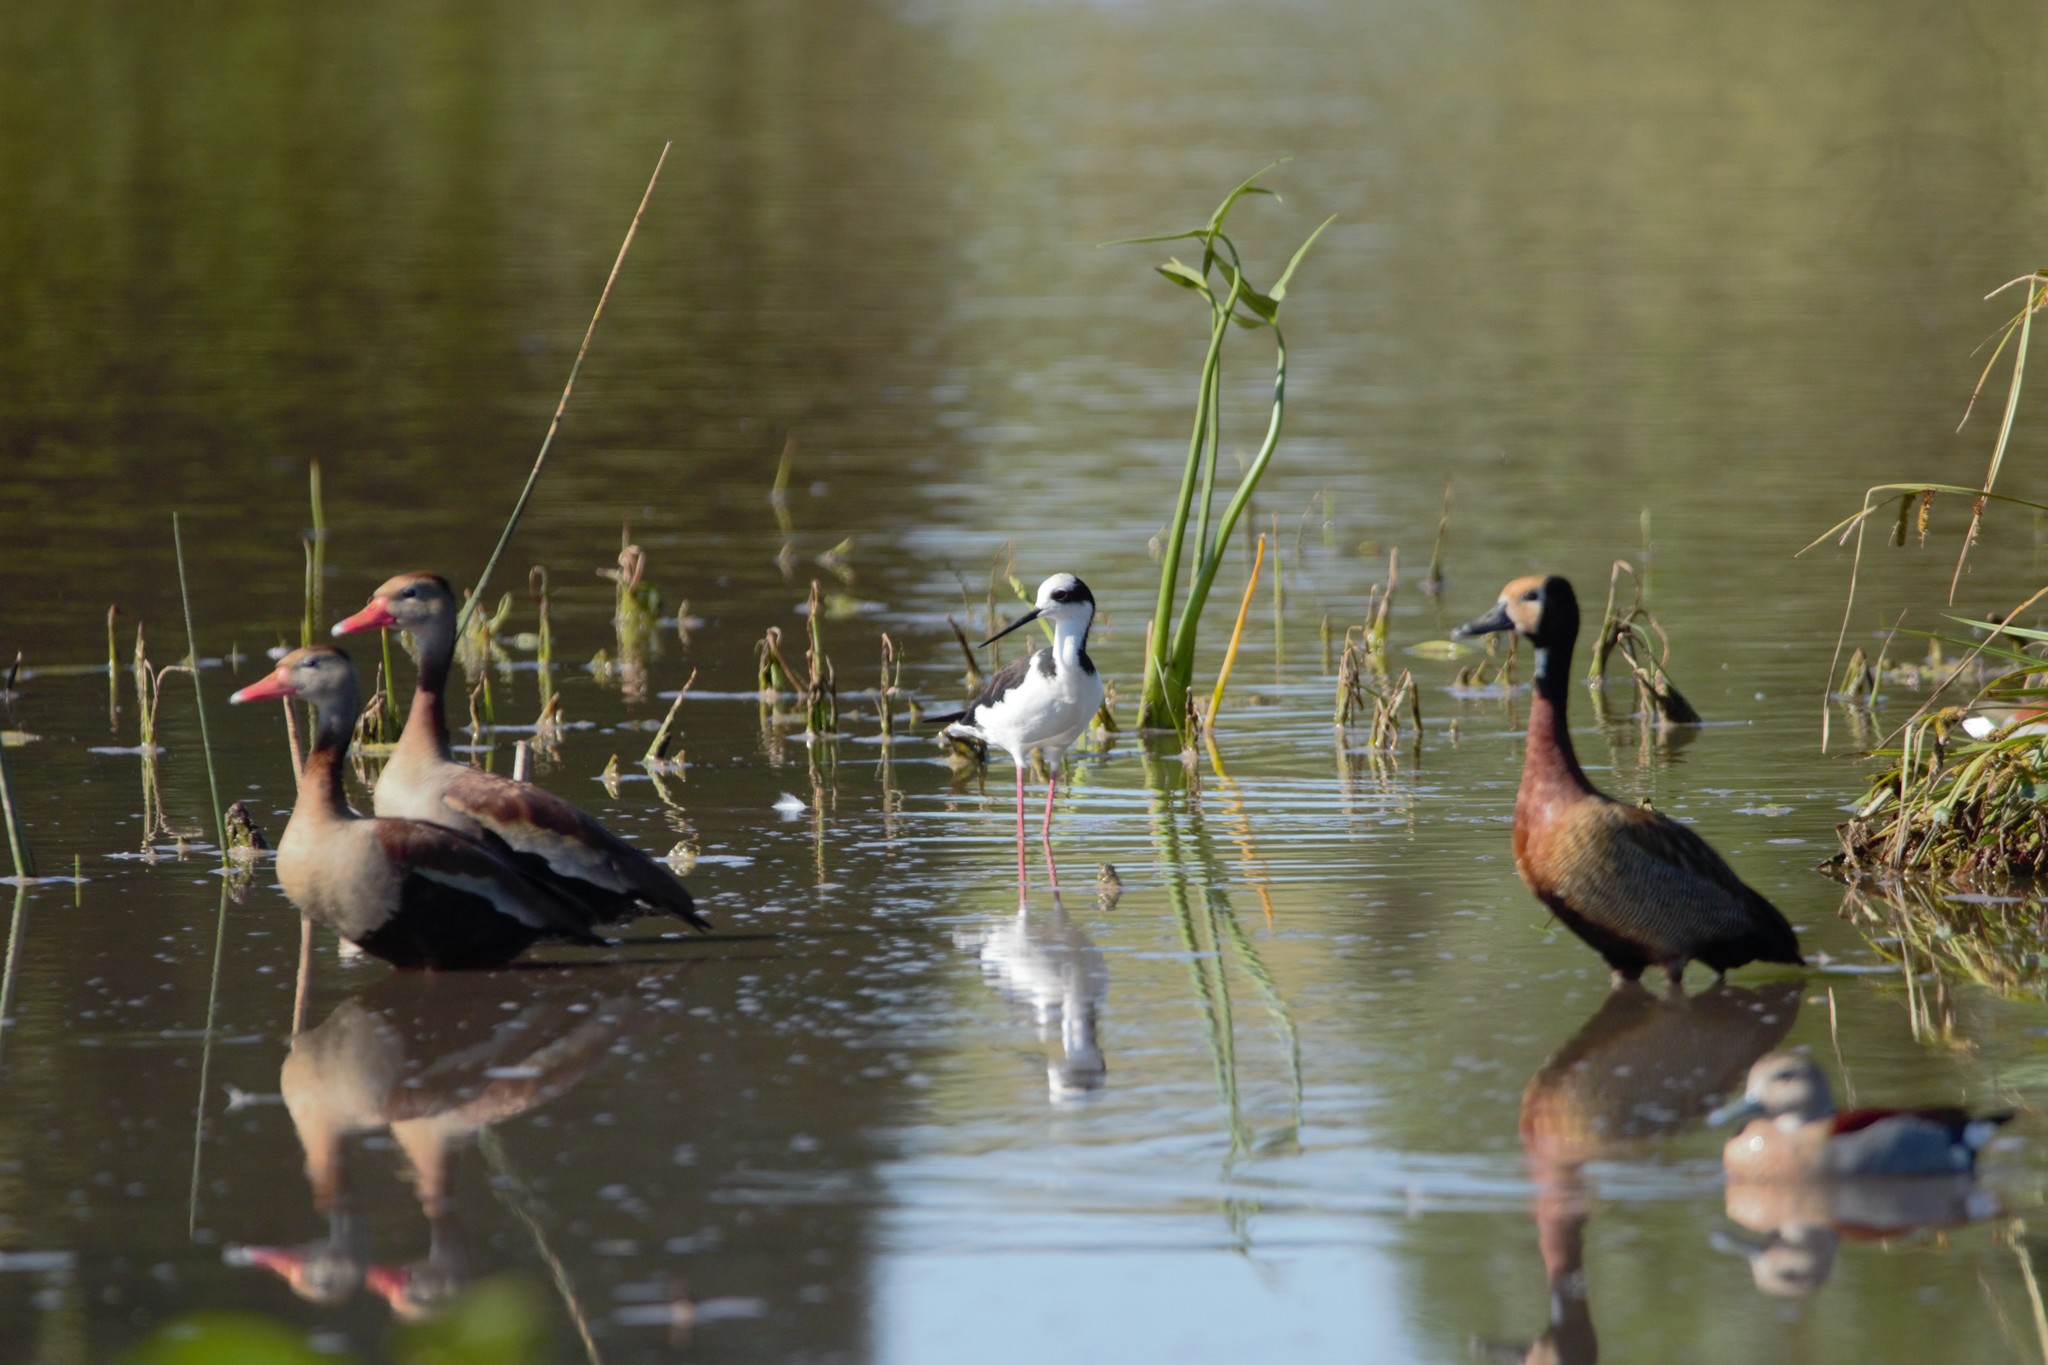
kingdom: Animalia
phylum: Chordata
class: Aves
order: Charadriiformes
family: Recurvirostridae
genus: Himantopus
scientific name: Himantopus mexicanus
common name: Black-necked stilt
